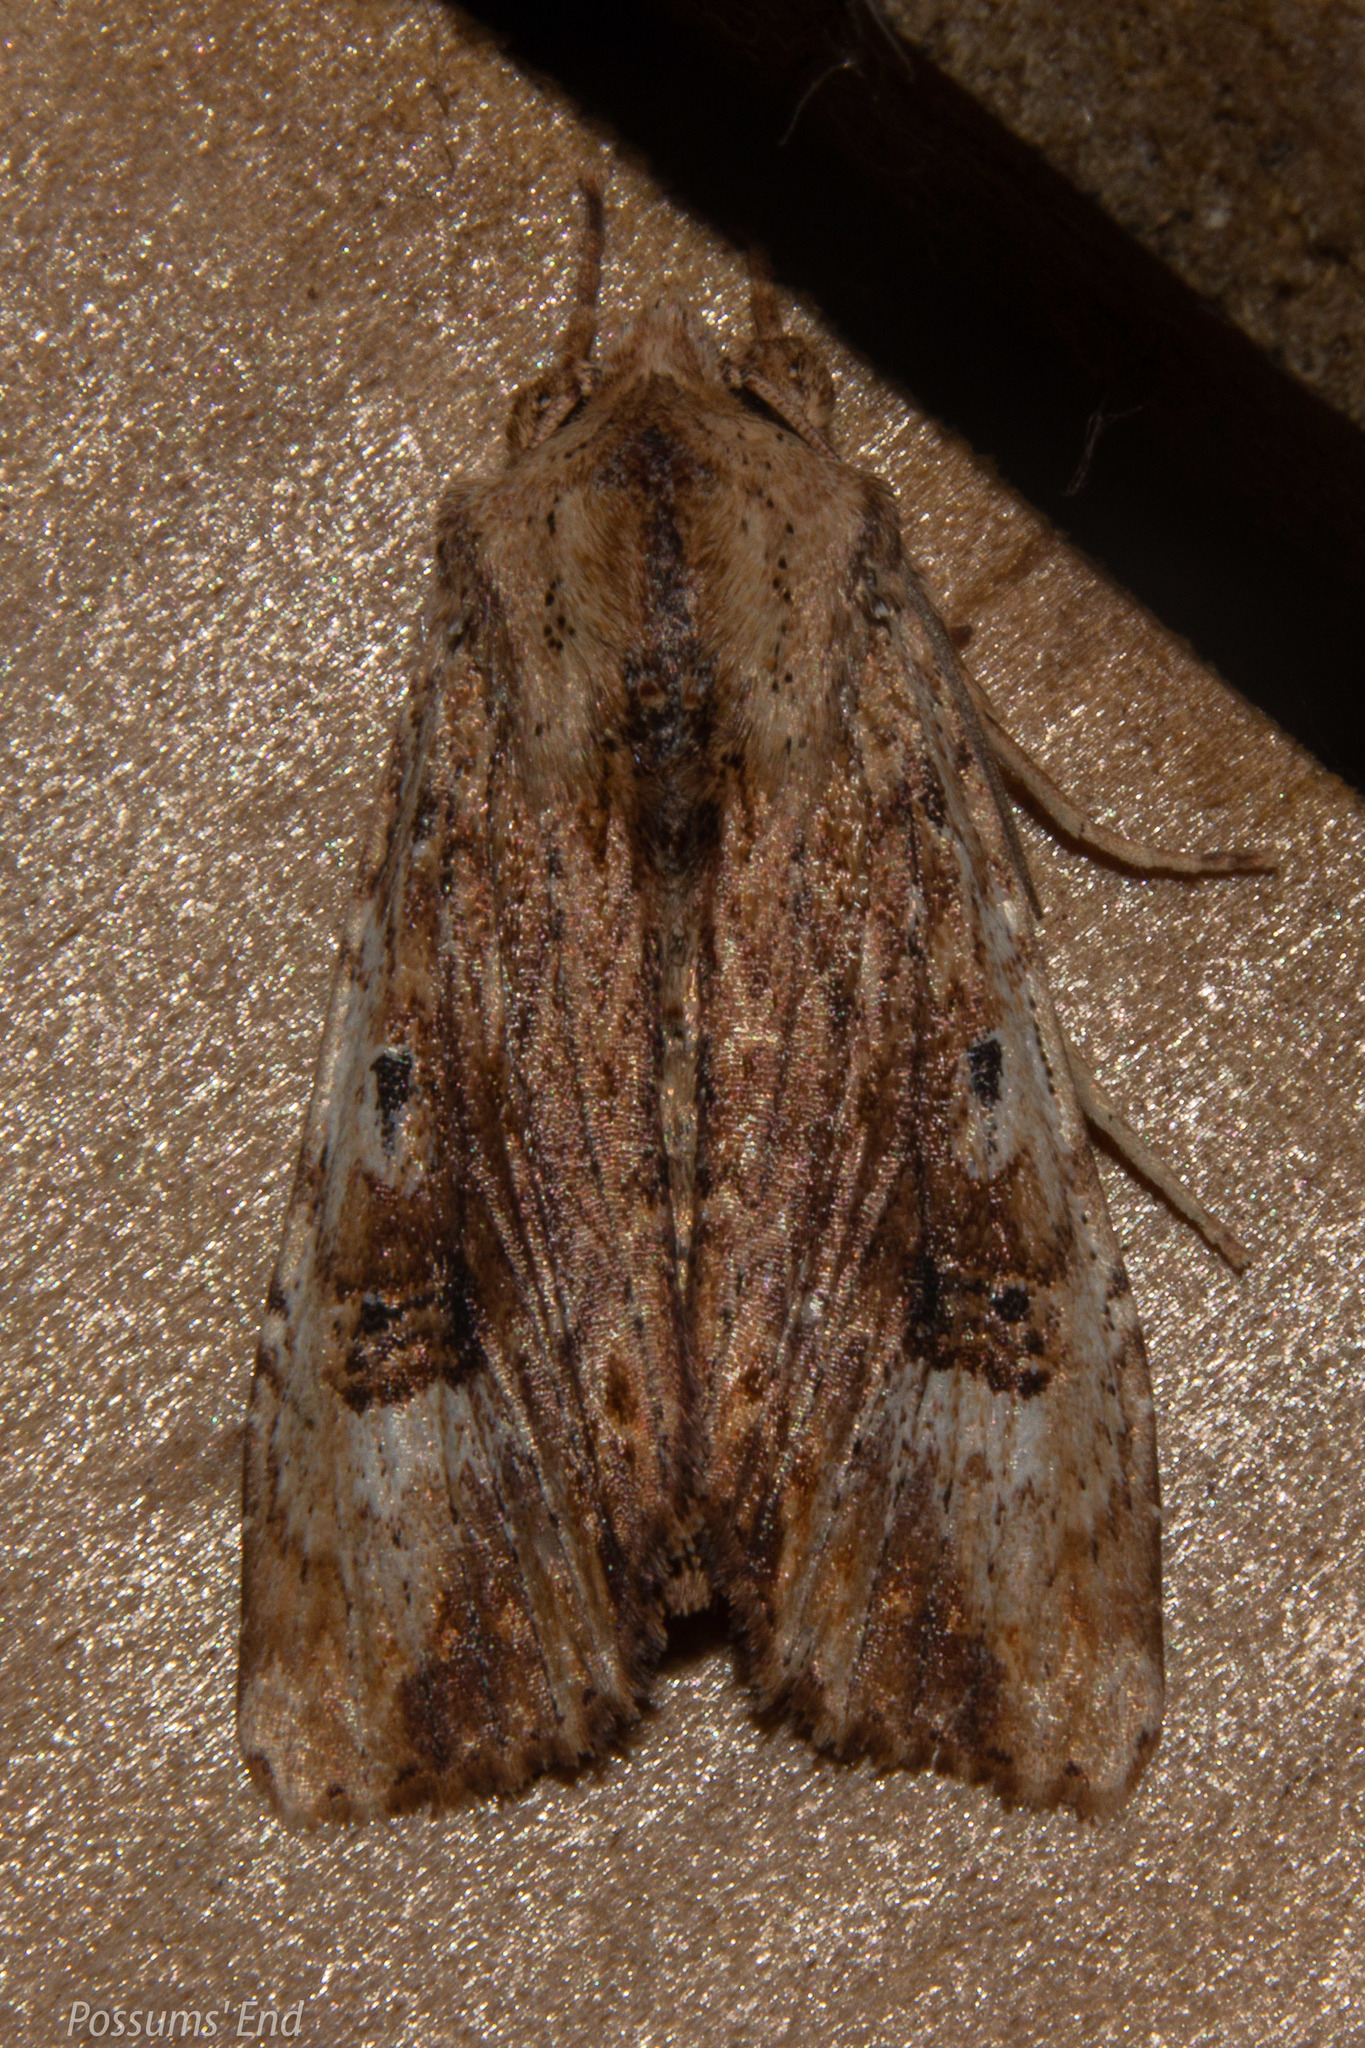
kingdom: Animalia
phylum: Arthropoda
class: Insecta
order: Lepidoptera
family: Noctuidae
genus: Ichneutica
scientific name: Ichneutica
